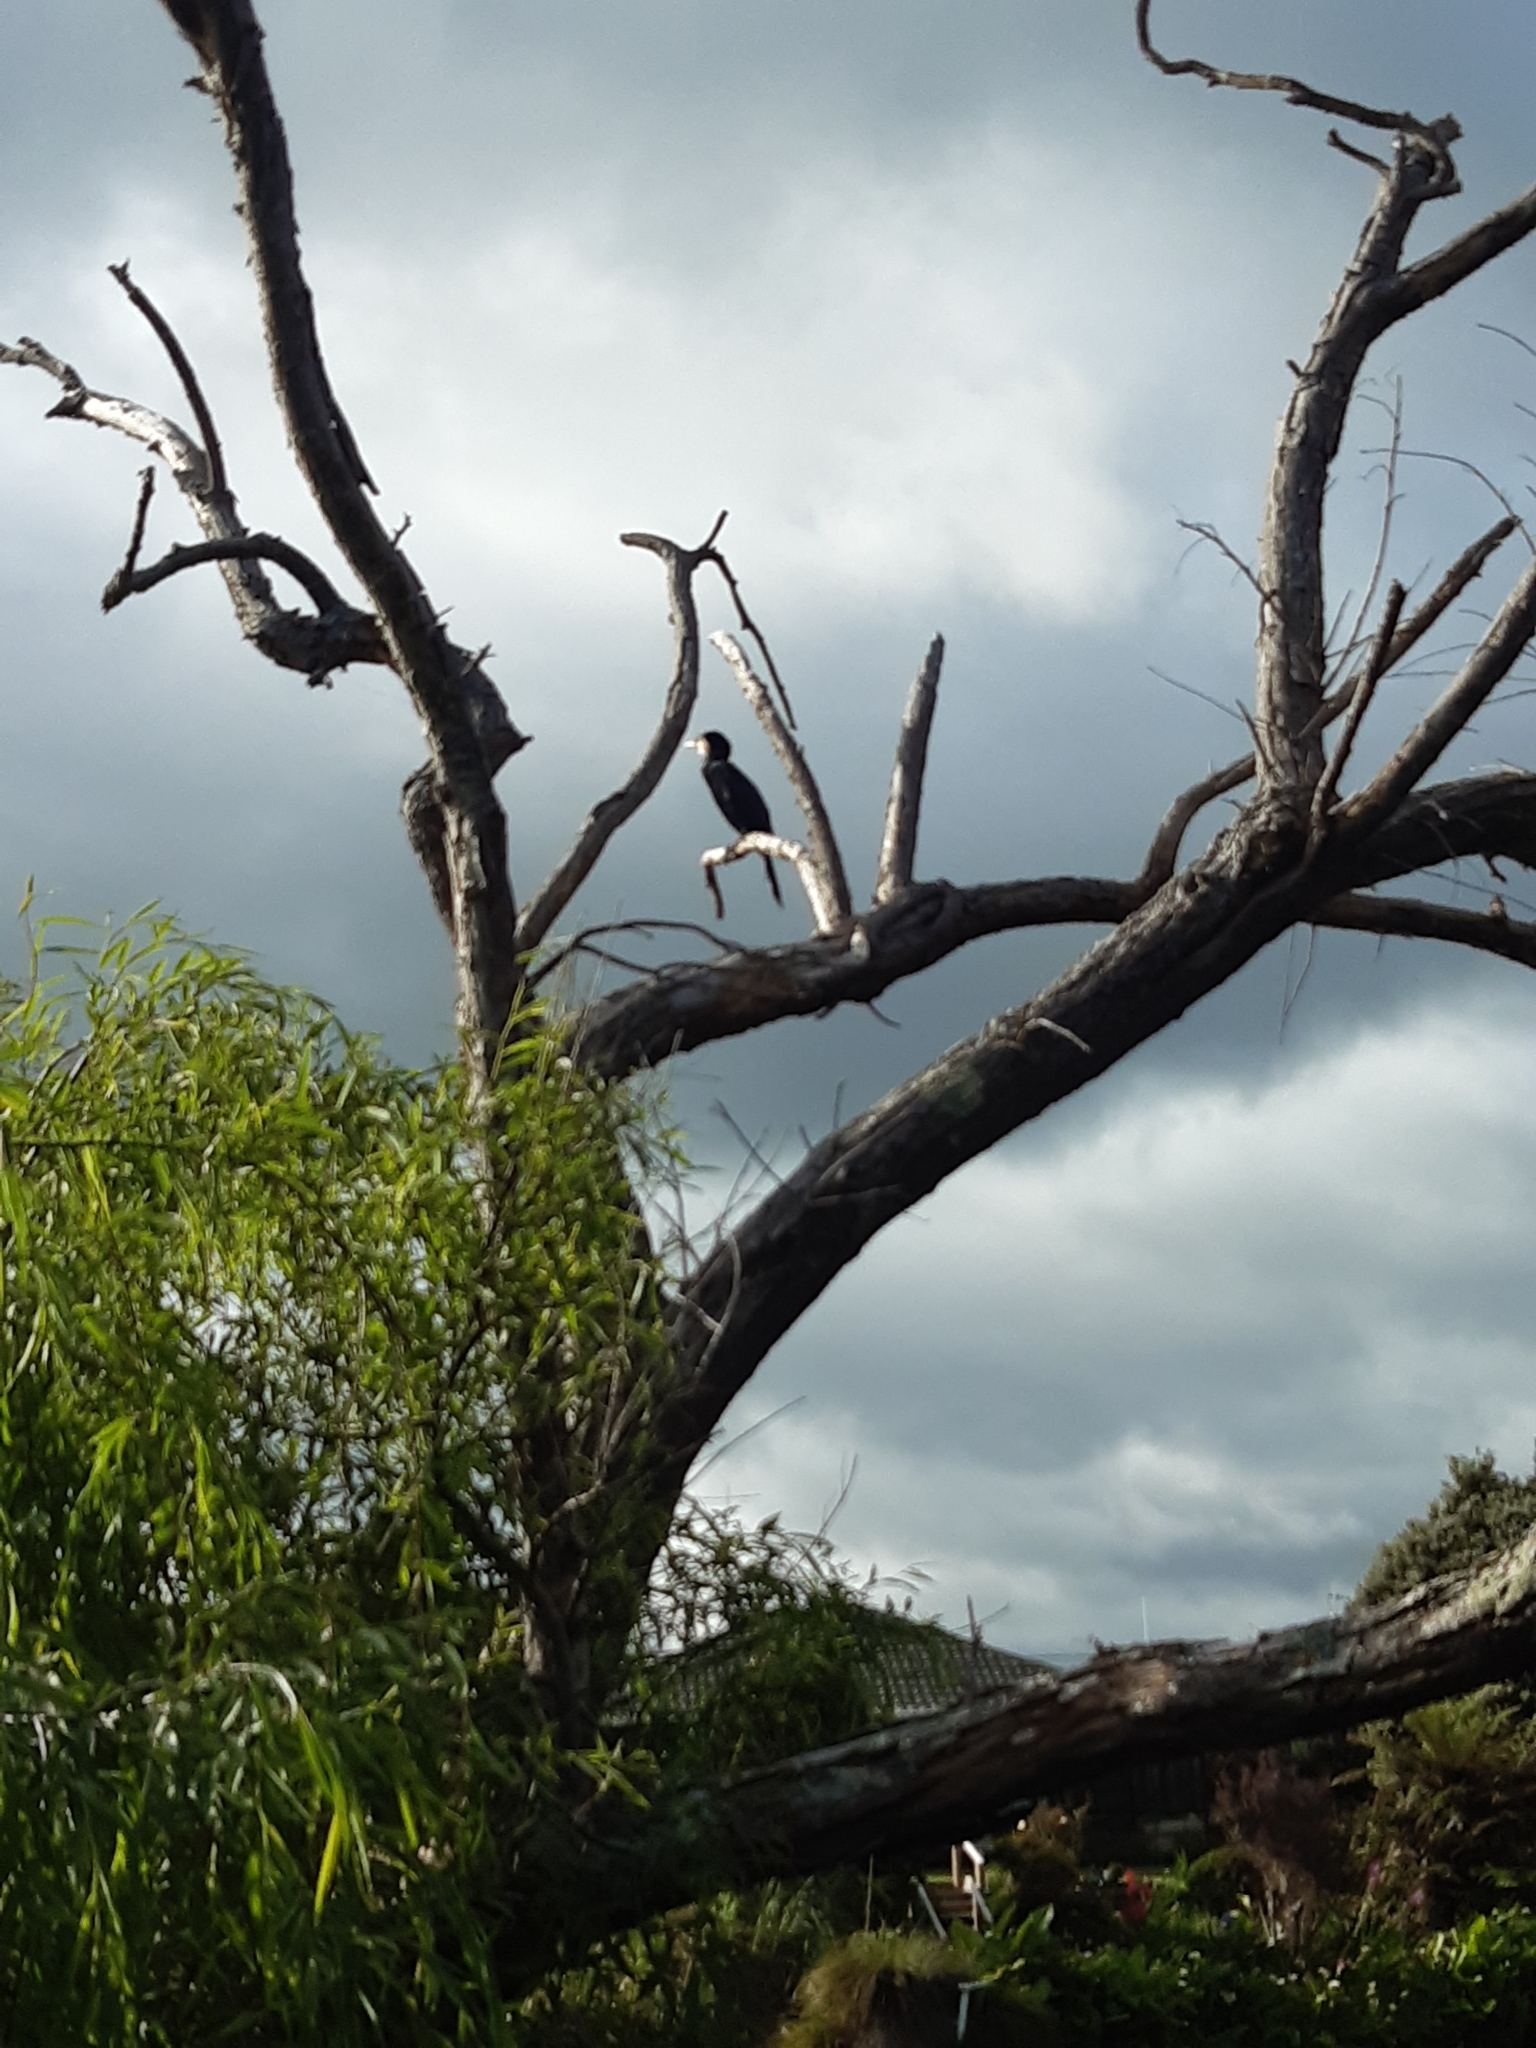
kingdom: Animalia
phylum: Chordata
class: Aves
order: Suliformes
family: Phalacrocoracidae
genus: Microcarbo
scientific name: Microcarbo melanoleucos
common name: Little pied cormorant
